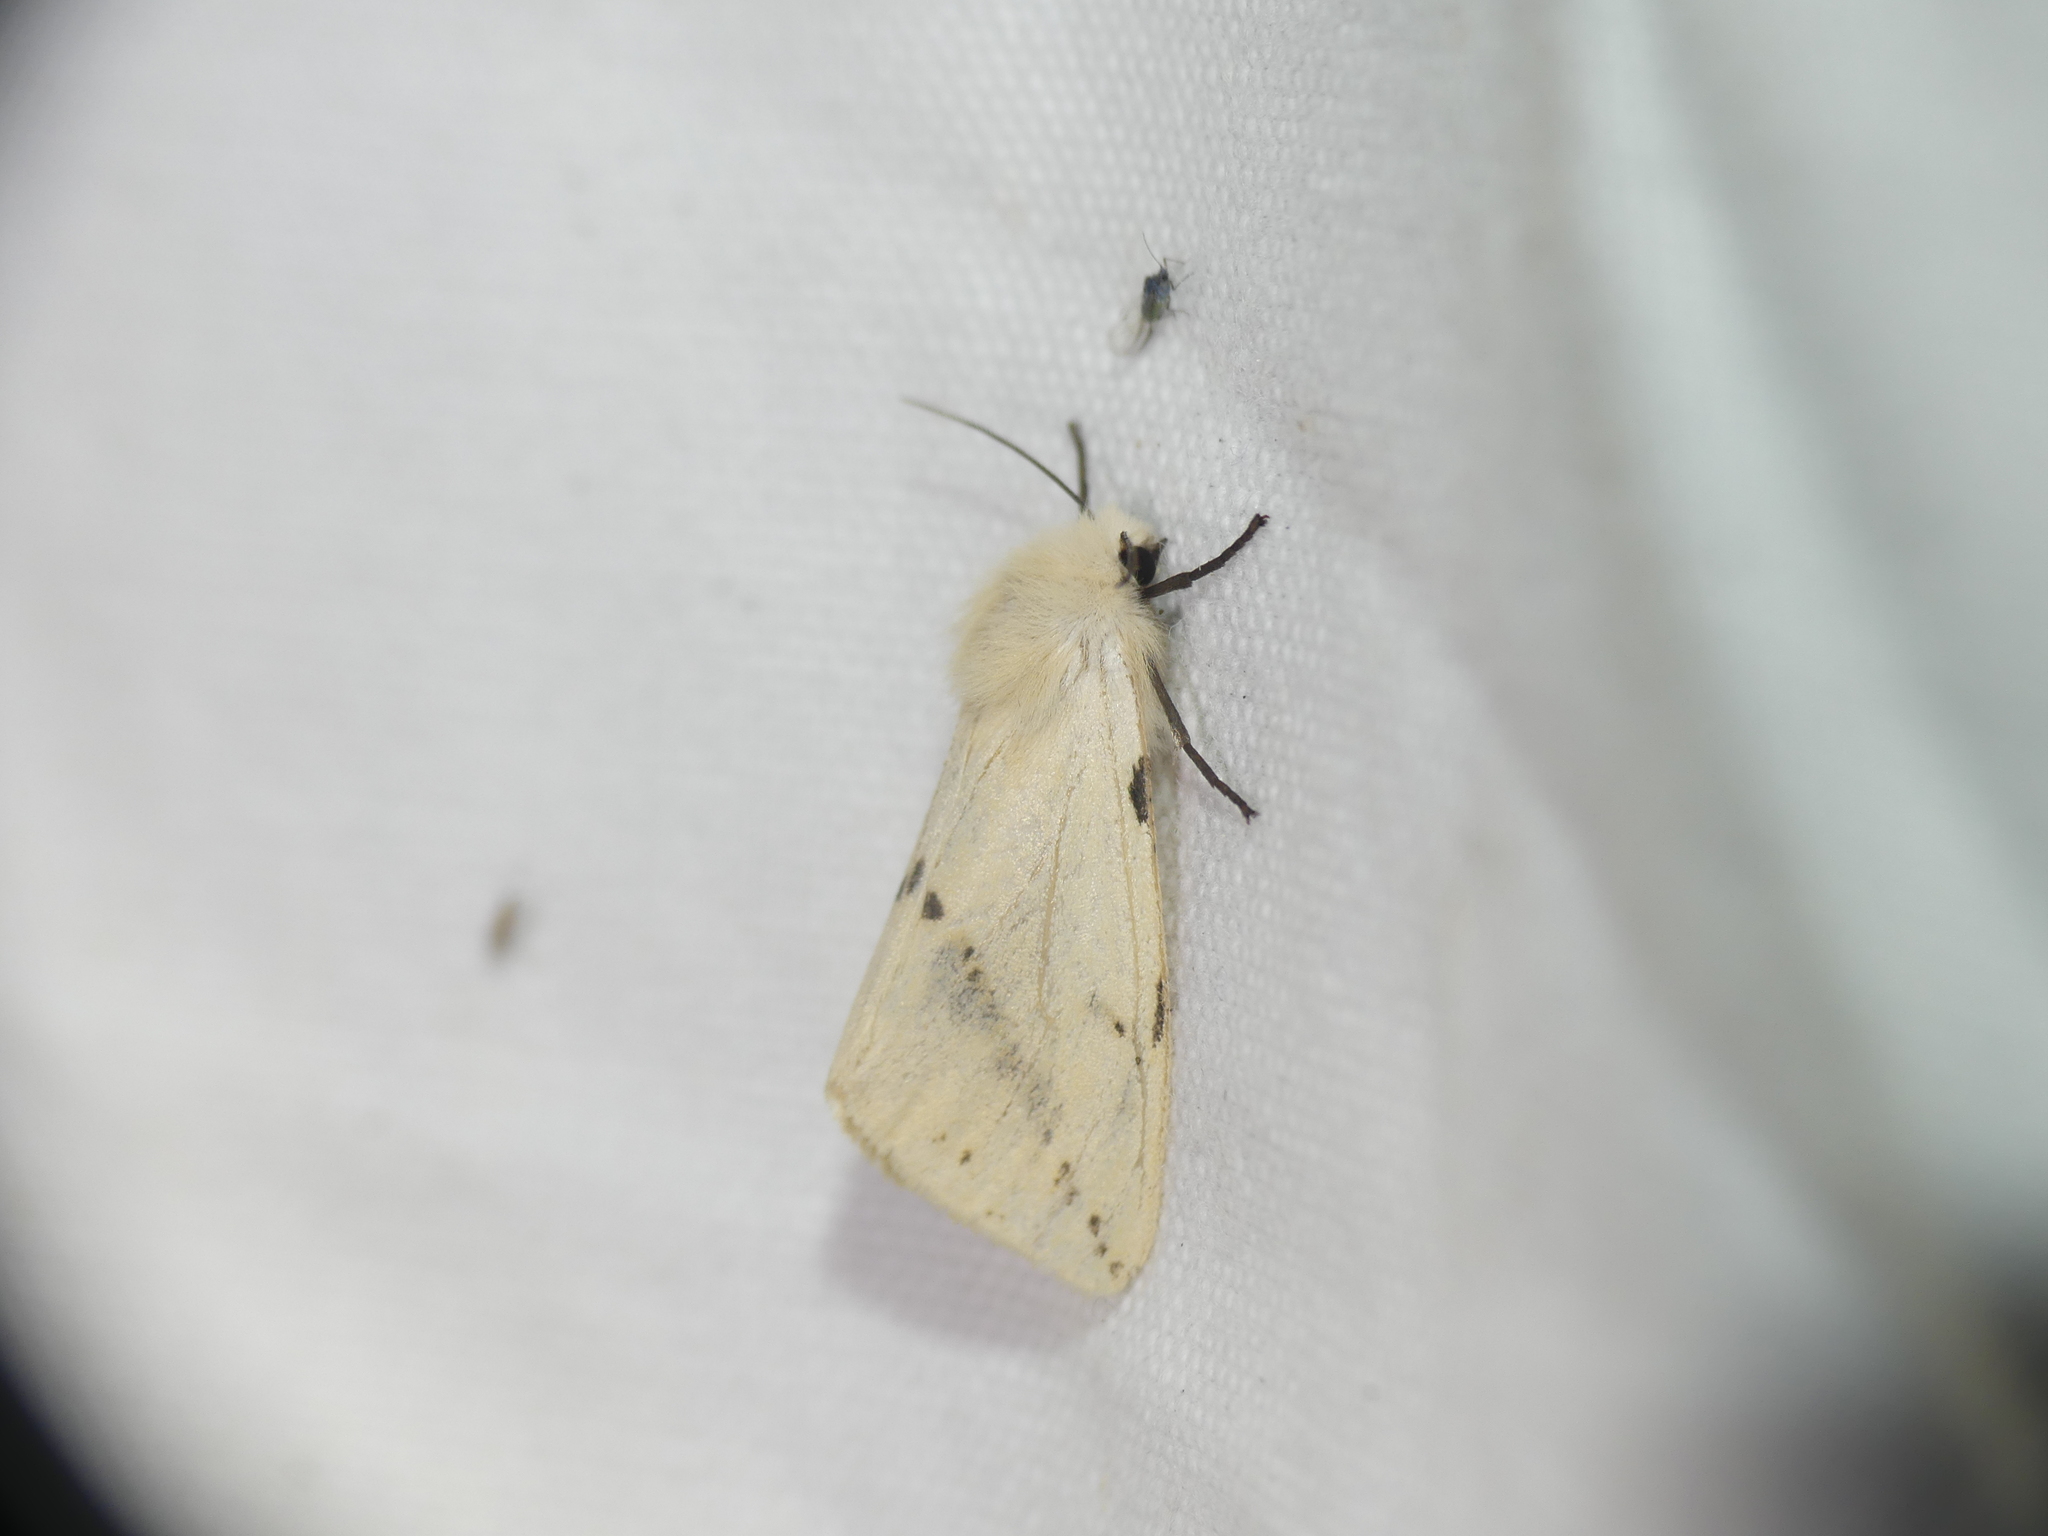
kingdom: Animalia
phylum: Arthropoda
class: Insecta
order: Lepidoptera
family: Erebidae
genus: Spilarctia
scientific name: Spilarctia lutea
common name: Buff ermine
